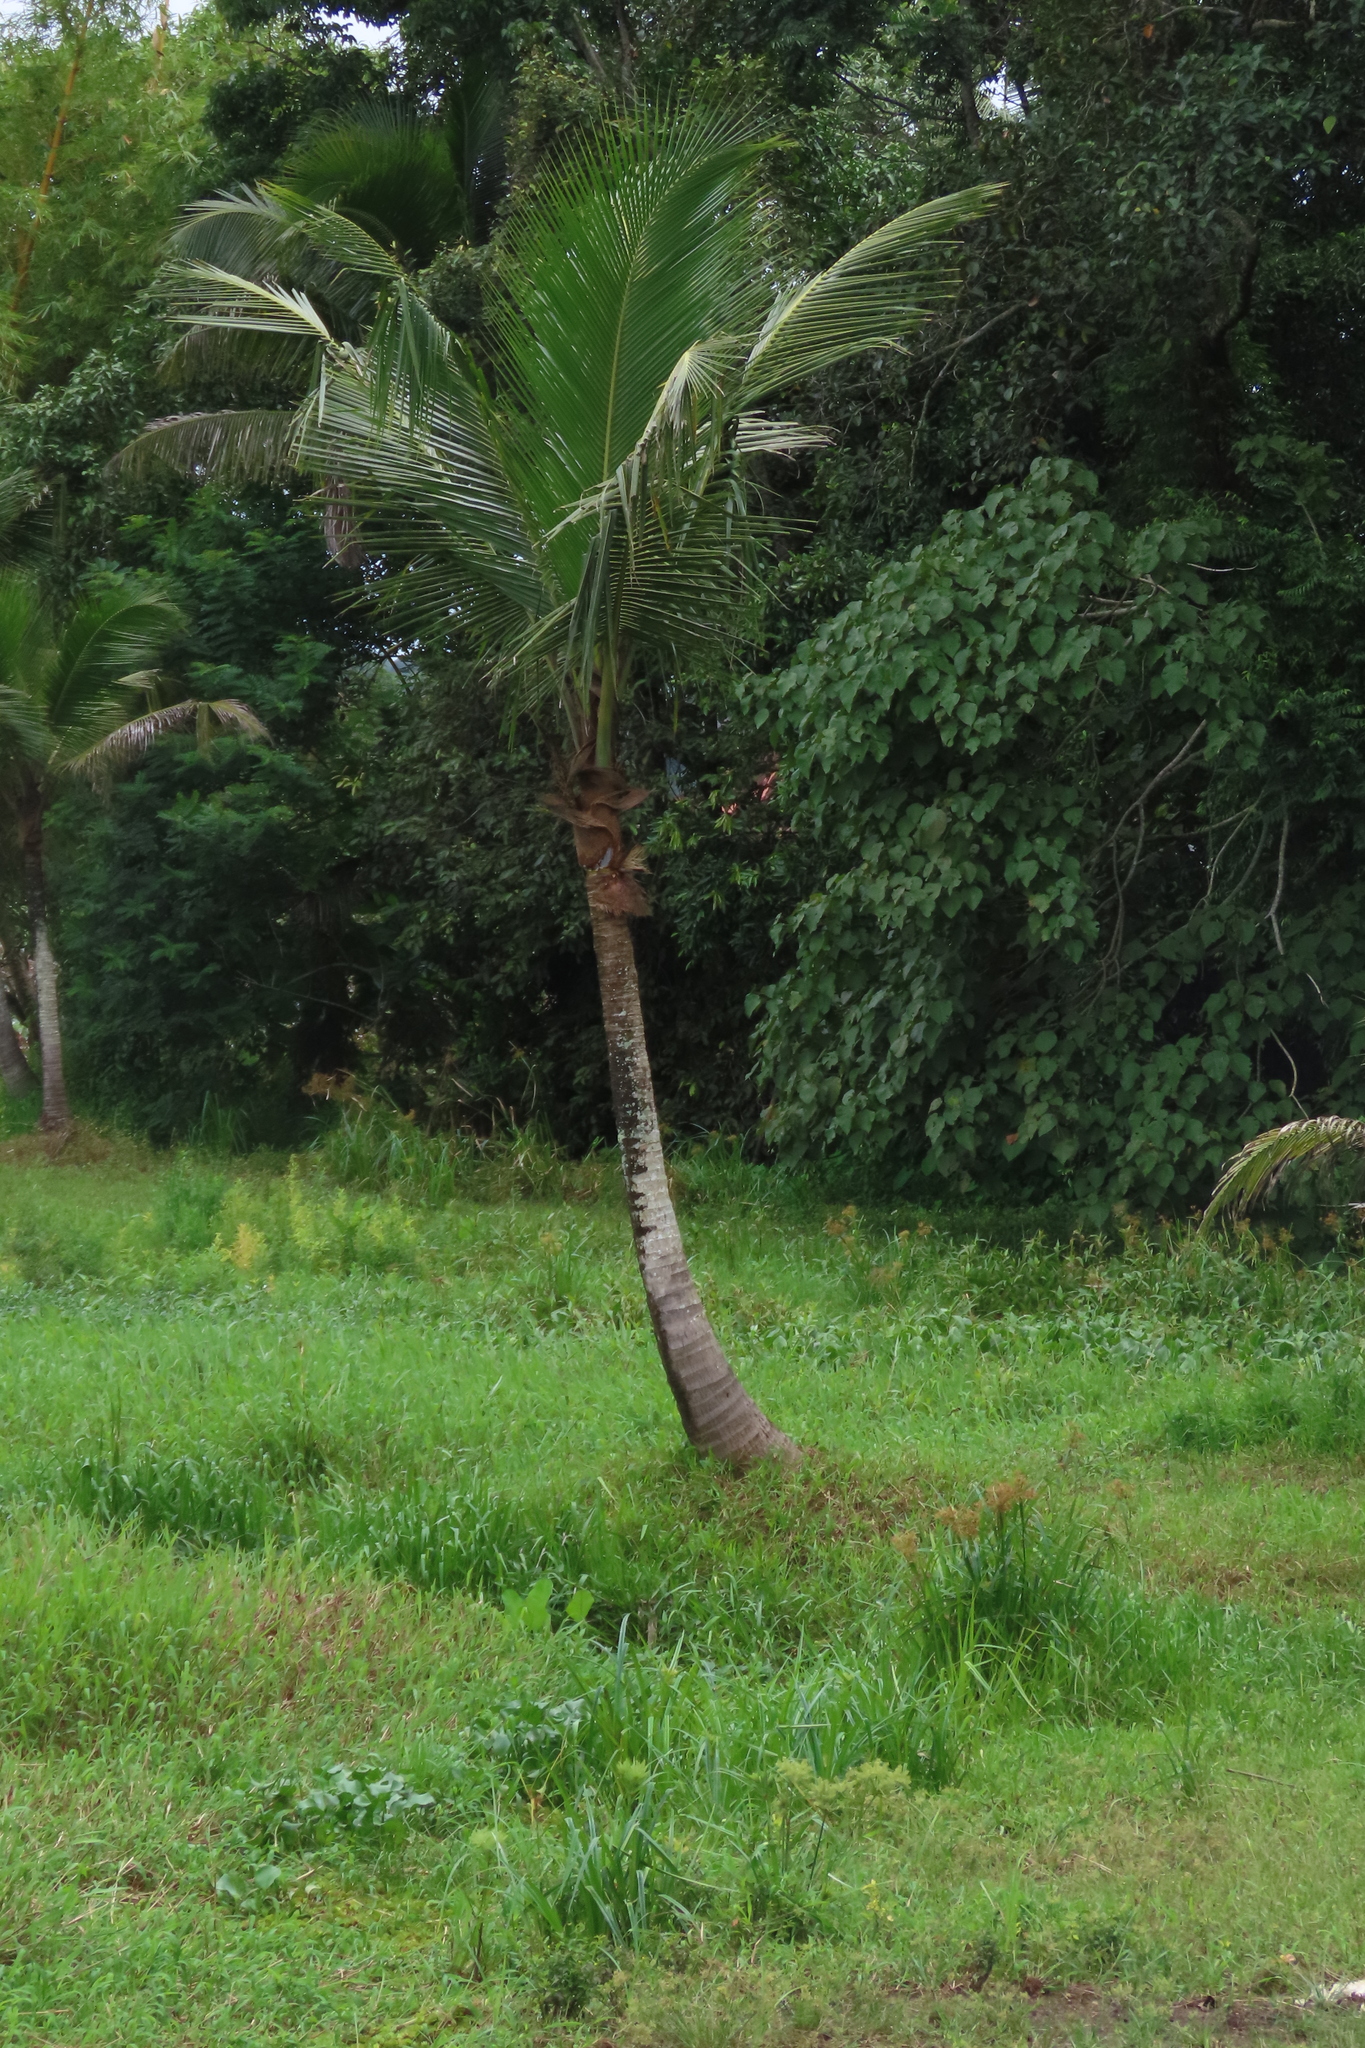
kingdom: Plantae
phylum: Tracheophyta
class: Liliopsida
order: Arecales
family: Arecaceae
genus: Cocos
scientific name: Cocos nucifera
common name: Coconut palm
